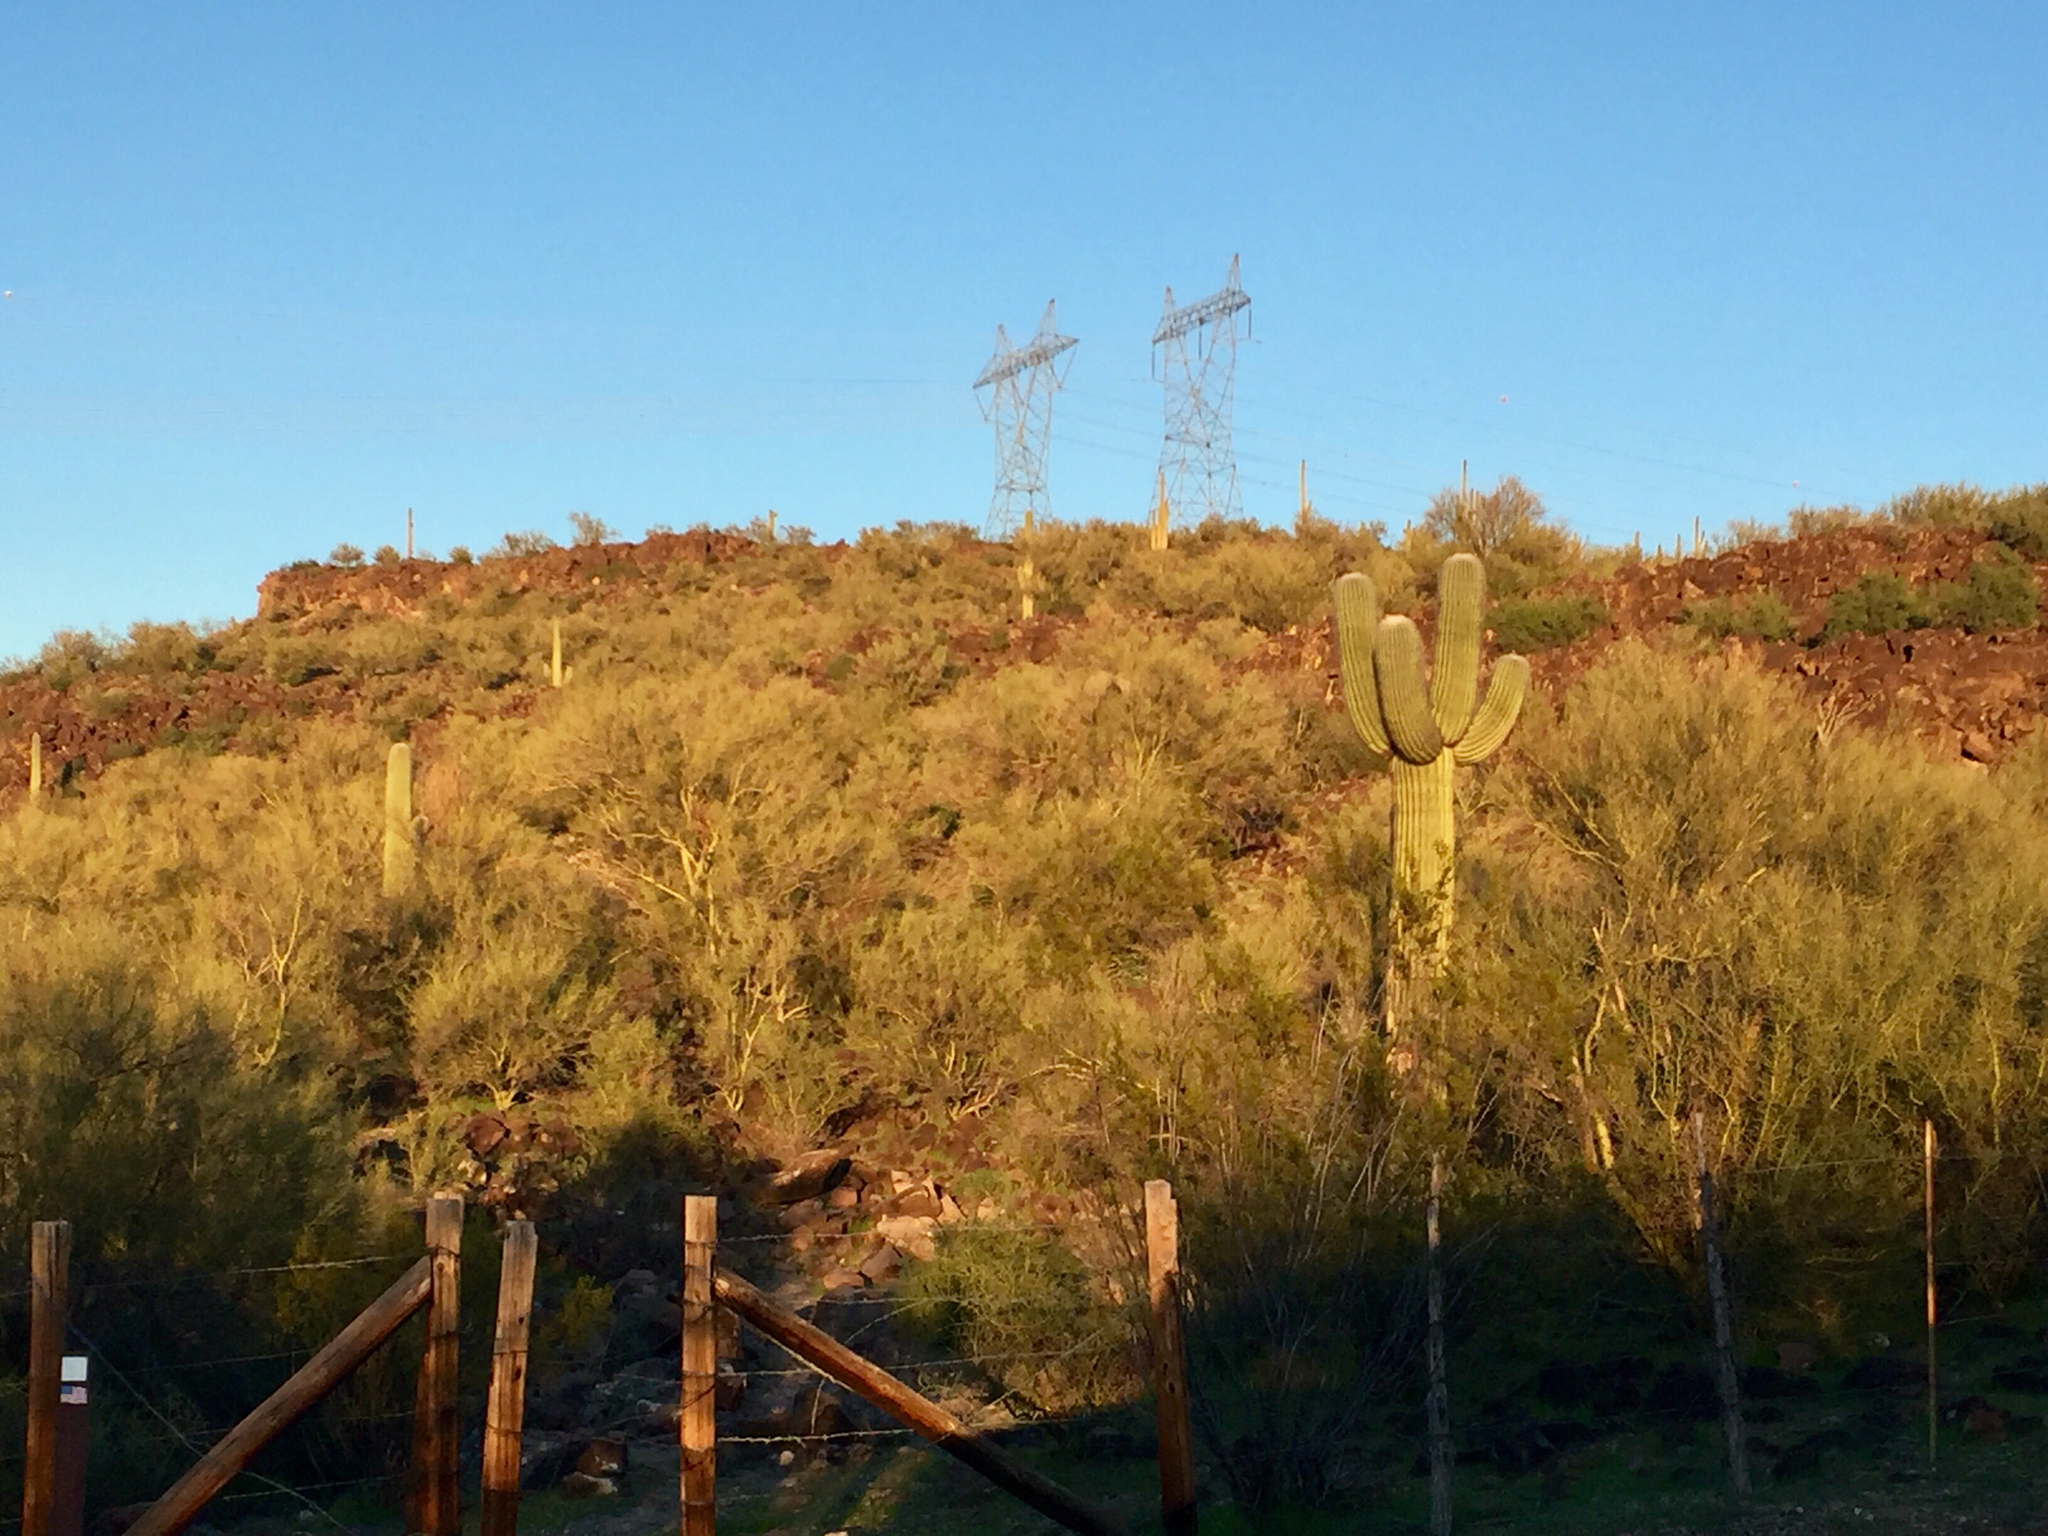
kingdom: Plantae
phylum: Tracheophyta
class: Magnoliopsida
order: Caryophyllales
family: Cactaceae
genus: Carnegiea
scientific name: Carnegiea gigantea
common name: Saguaro
